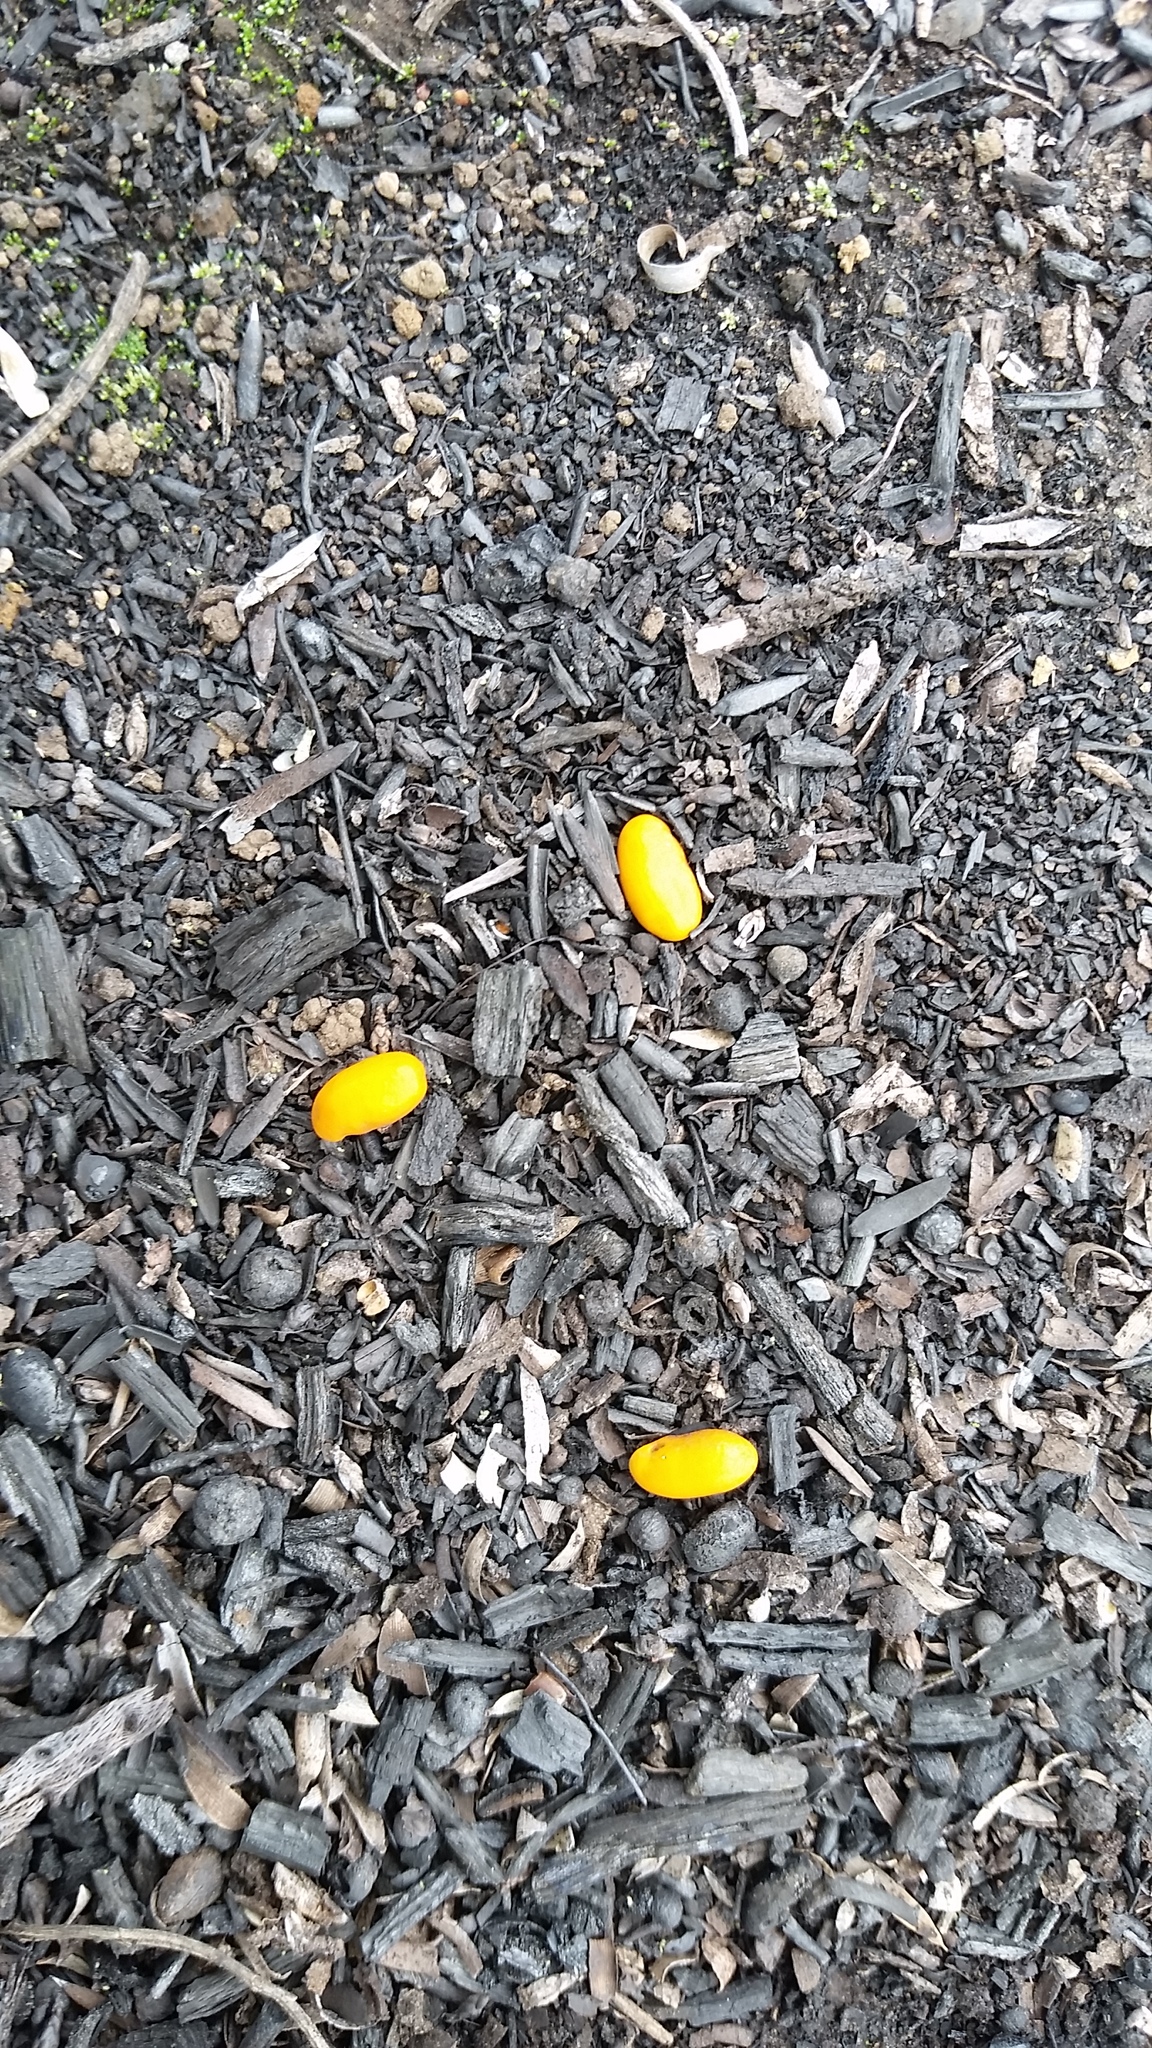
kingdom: Plantae
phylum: Tracheophyta
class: Magnoliopsida
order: Fabales
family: Fabaceae
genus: Sophora
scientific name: Sophora chrysophylla
